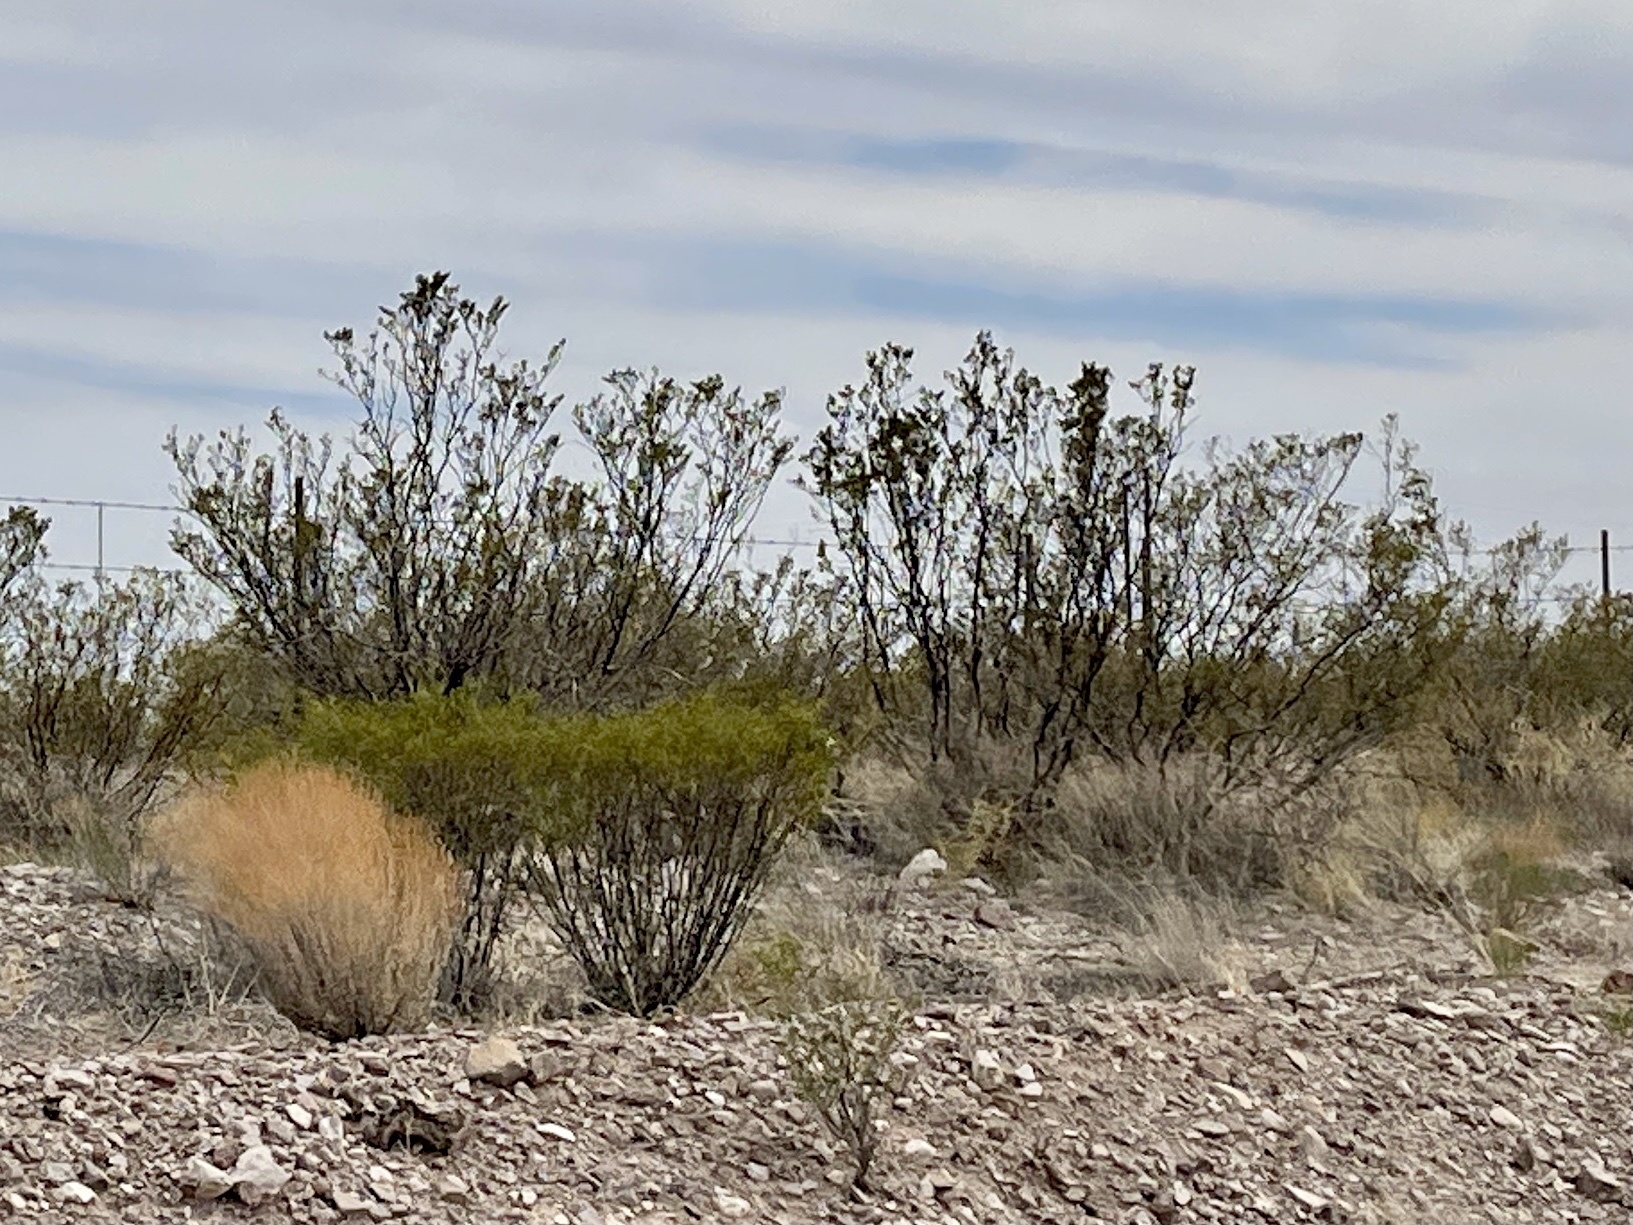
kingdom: Plantae
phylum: Tracheophyta
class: Magnoliopsida
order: Zygophyllales
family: Zygophyllaceae
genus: Larrea
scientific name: Larrea tridentata
